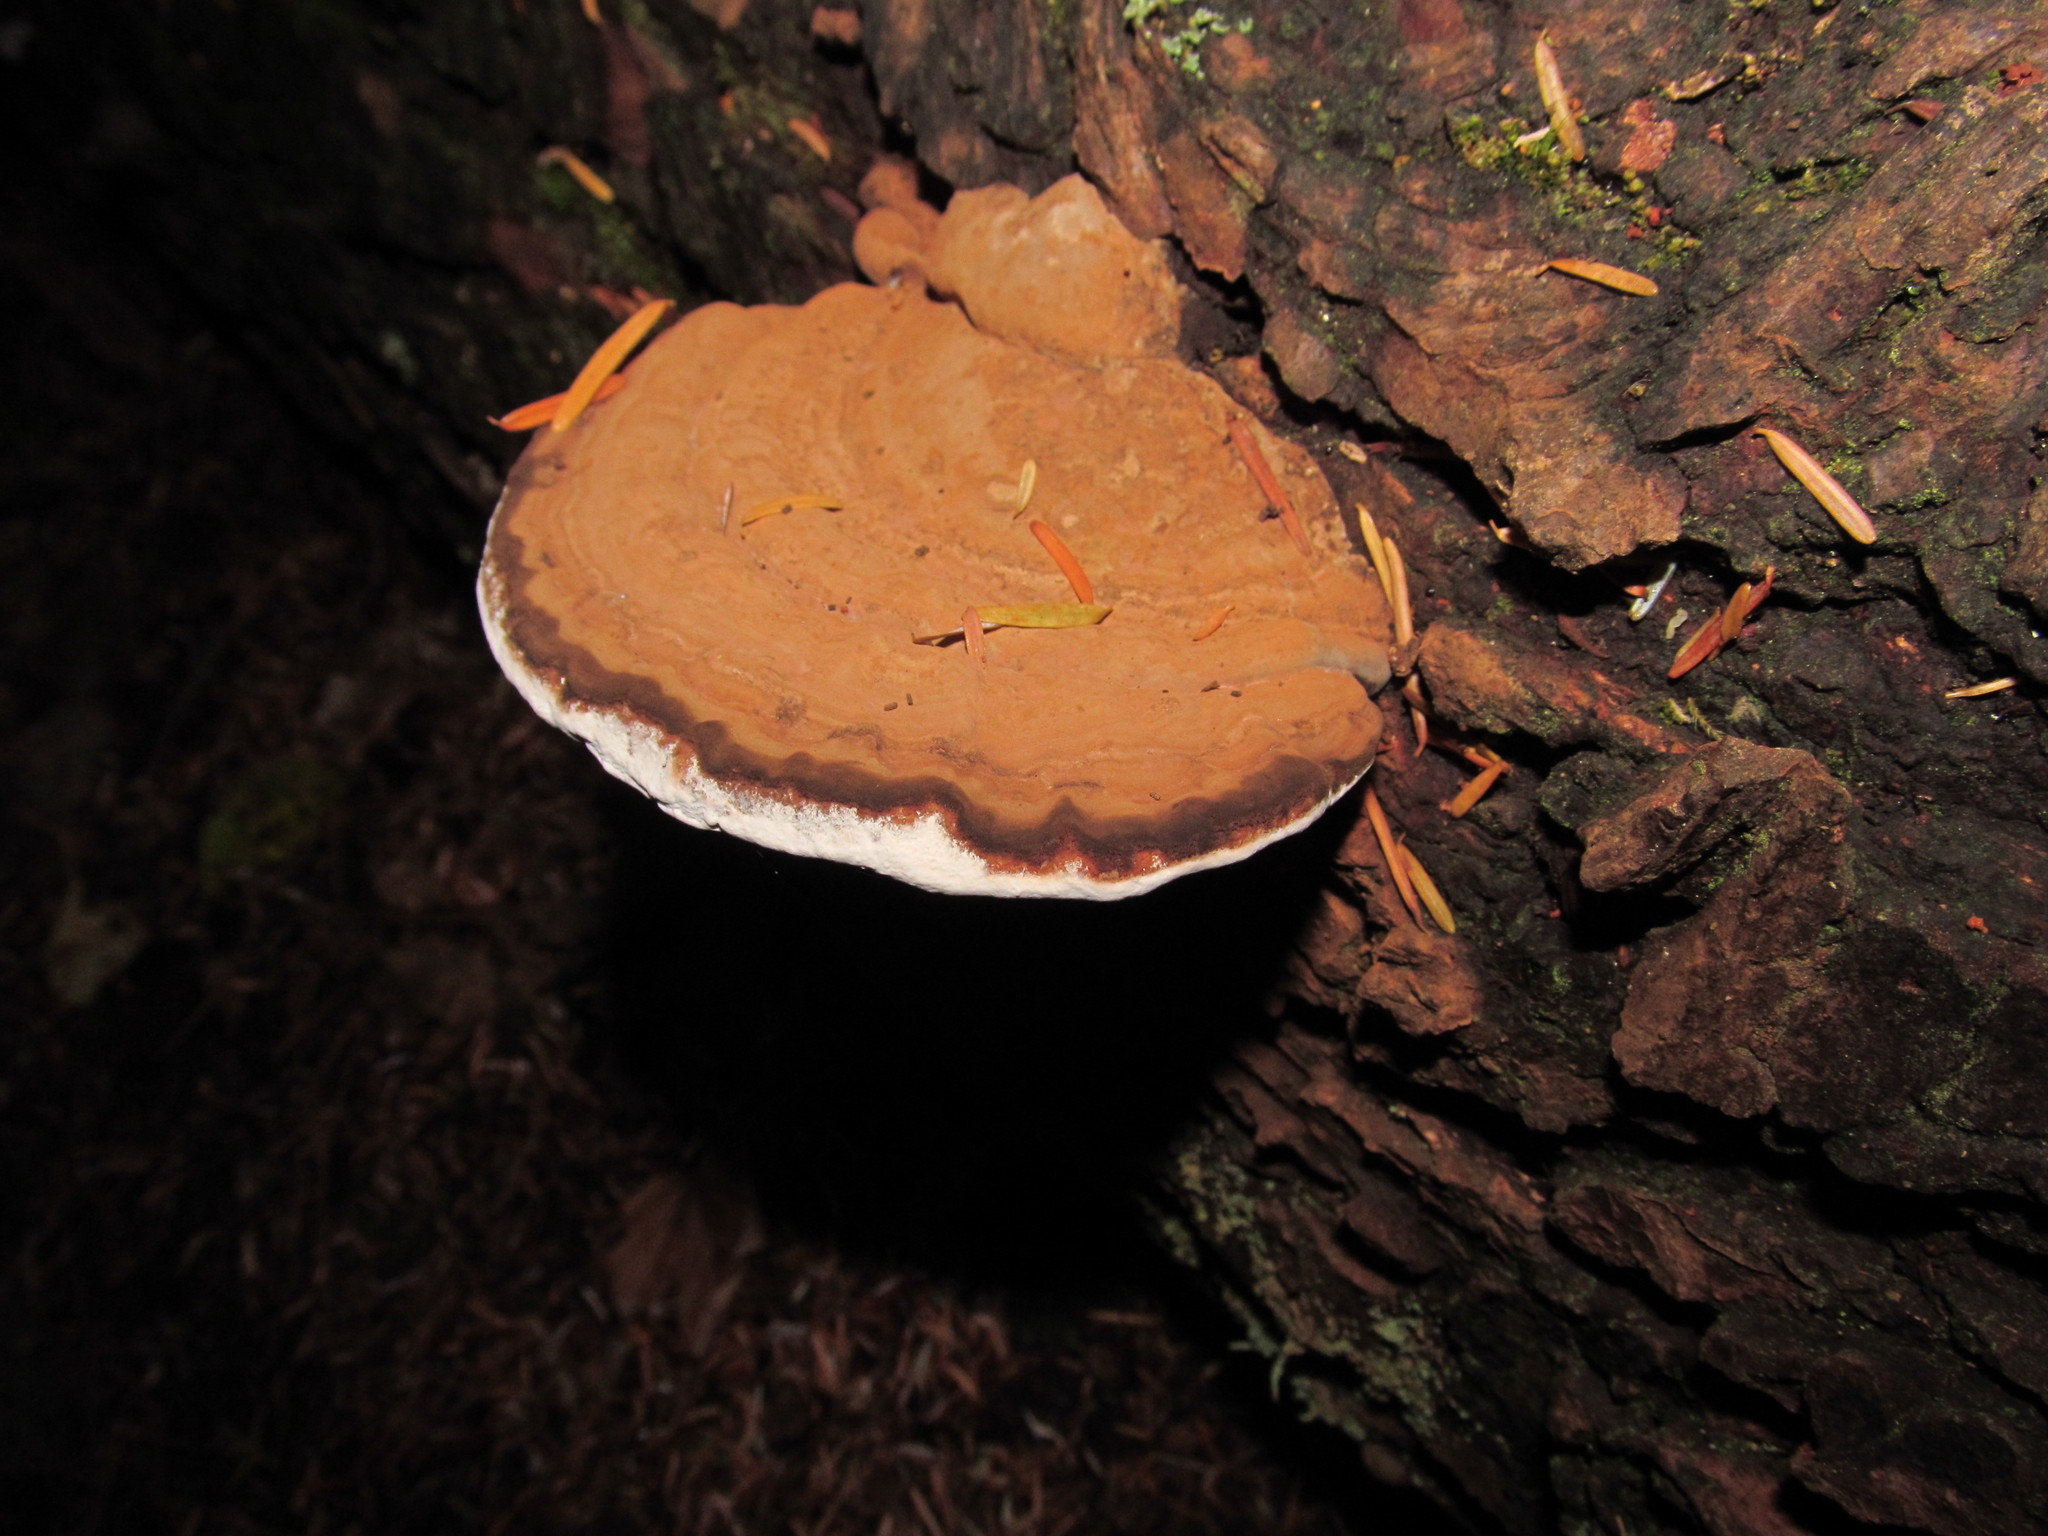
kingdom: Fungi
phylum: Basidiomycota
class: Agaricomycetes
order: Polyporales
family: Polyporaceae
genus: Ganoderma
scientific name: Ganoderma applanatum
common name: Artist's bracket
